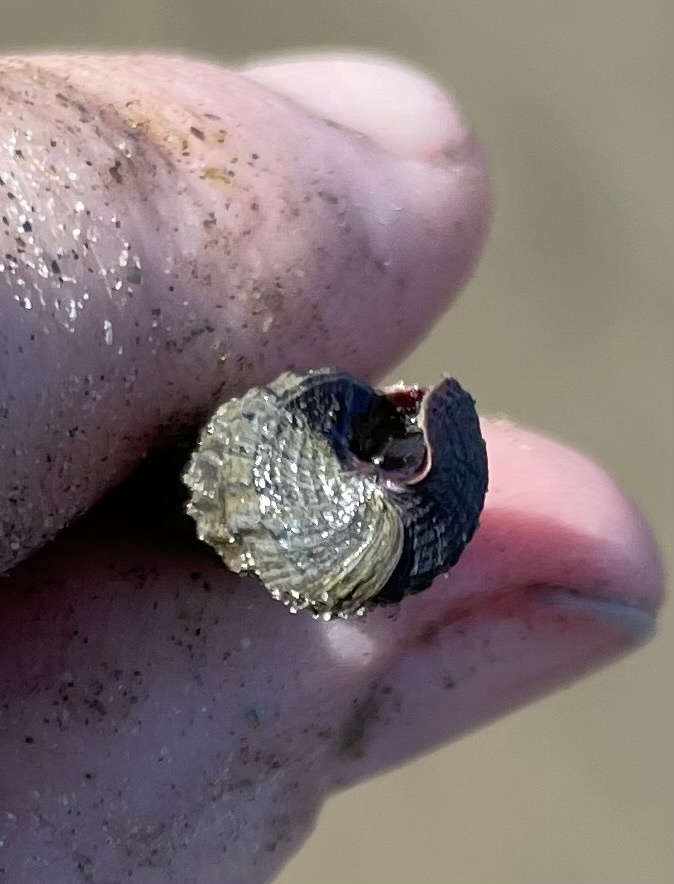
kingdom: Animalia
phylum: Mollusca
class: Gastropoda
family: Potamididae
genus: Cerithideopsis
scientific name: Cerithideopsis californica
